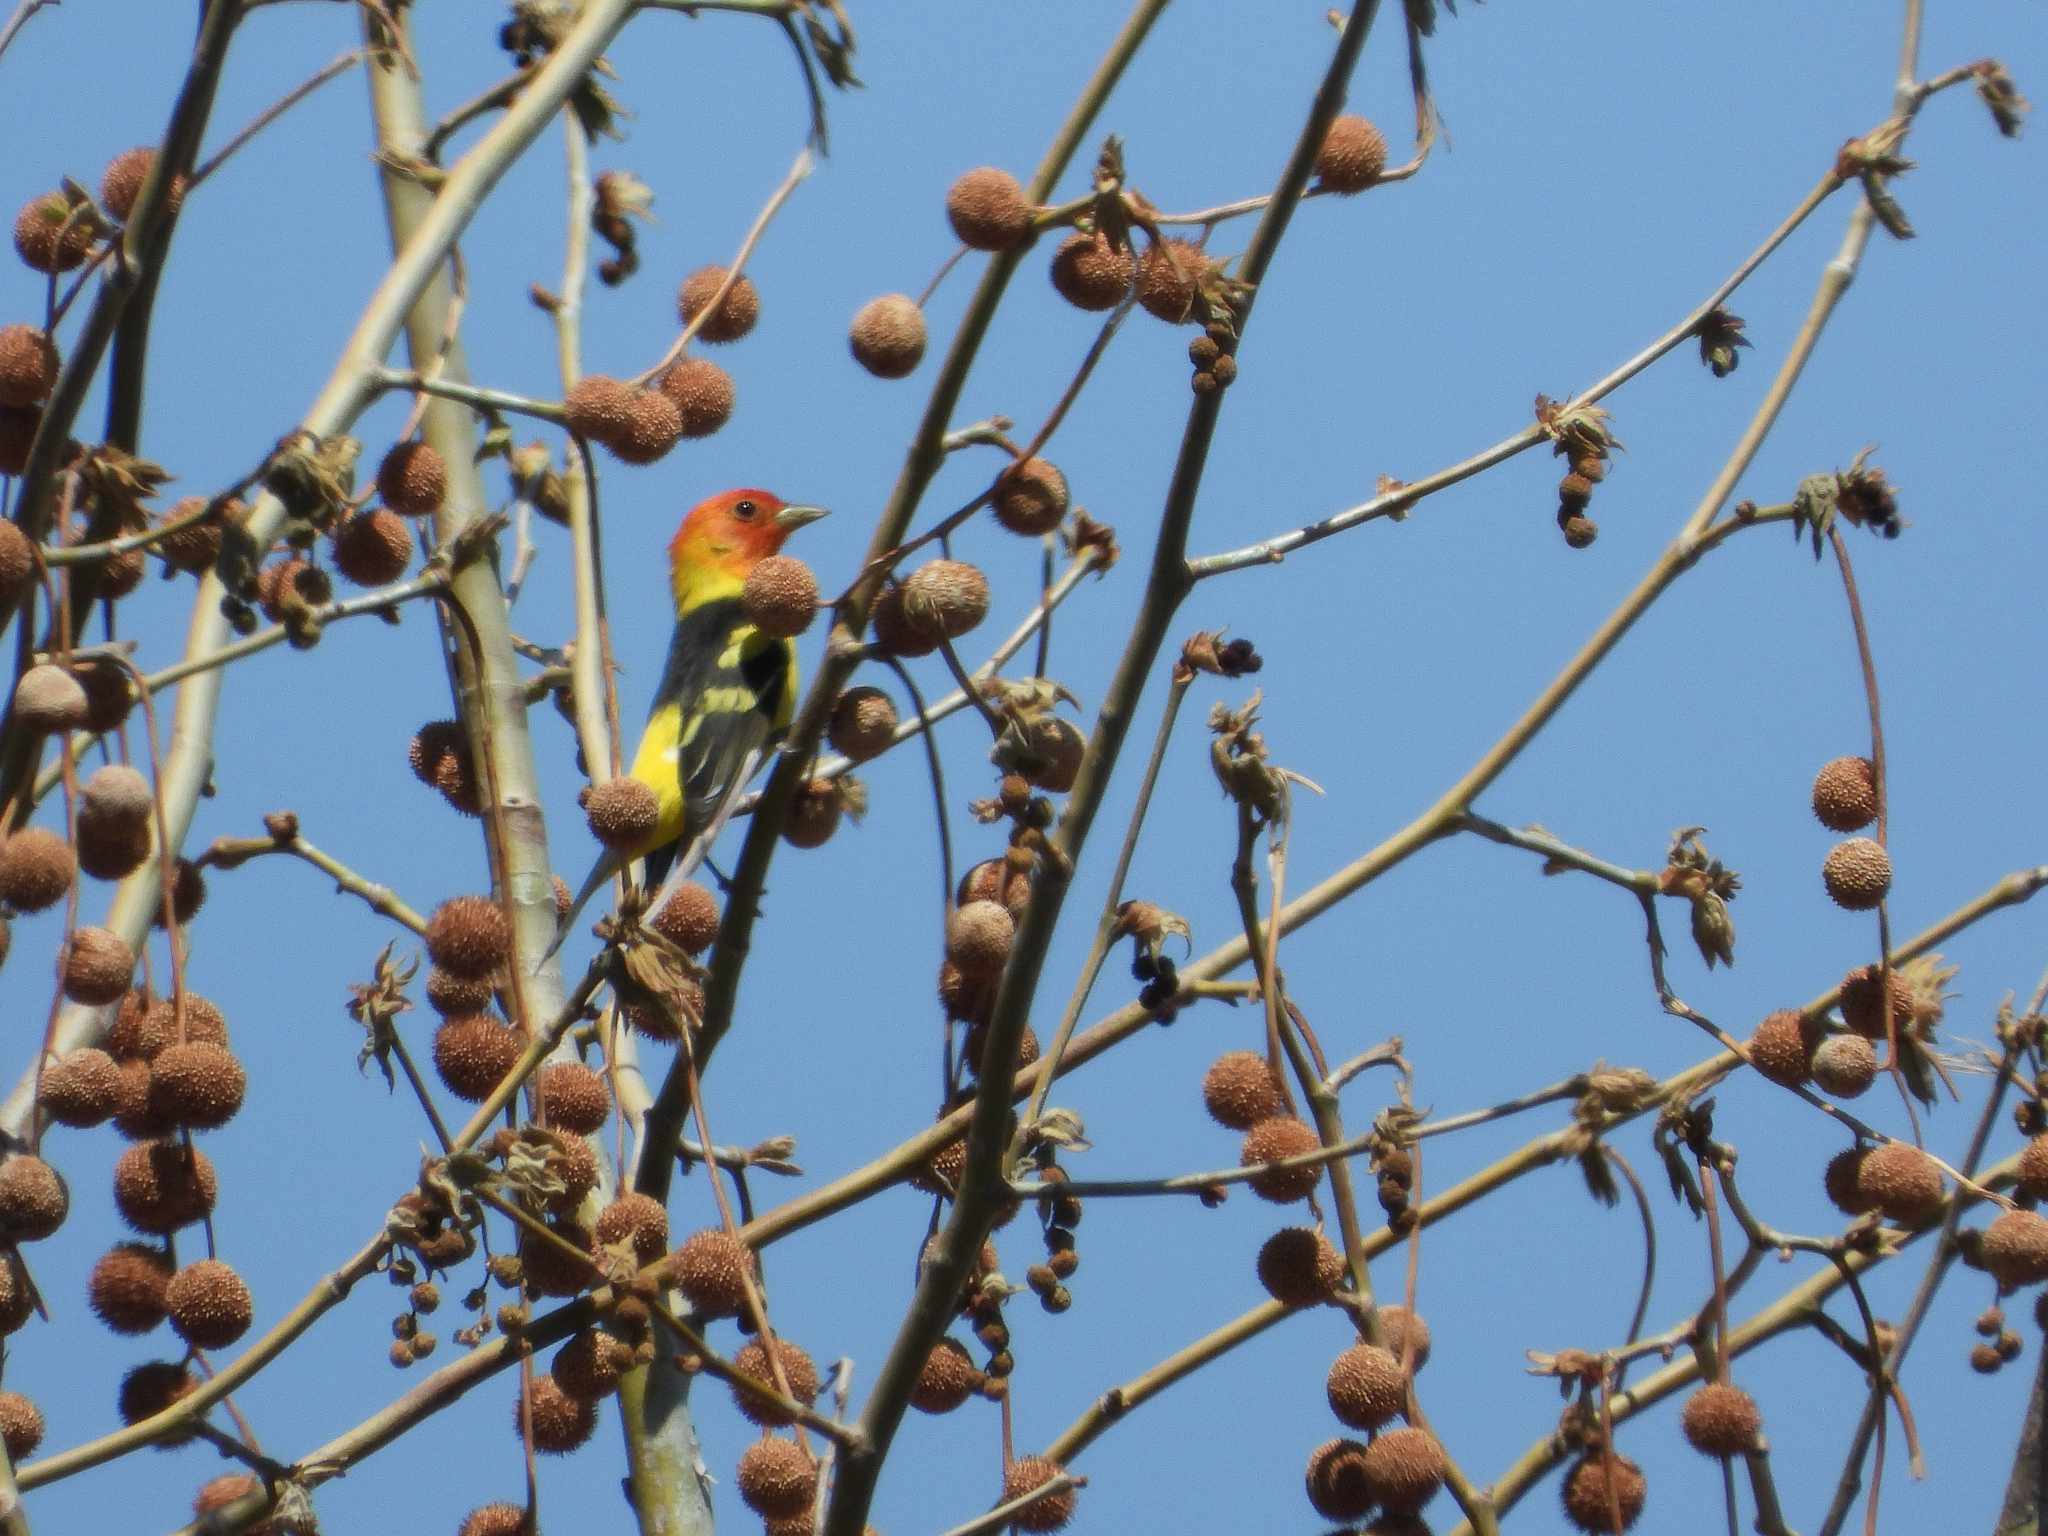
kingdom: Animalia
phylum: Chordata
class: Aves
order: Passeriformes
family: Cardinalidae
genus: Piranga
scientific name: Piranga ludoviciana
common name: Western tanager
